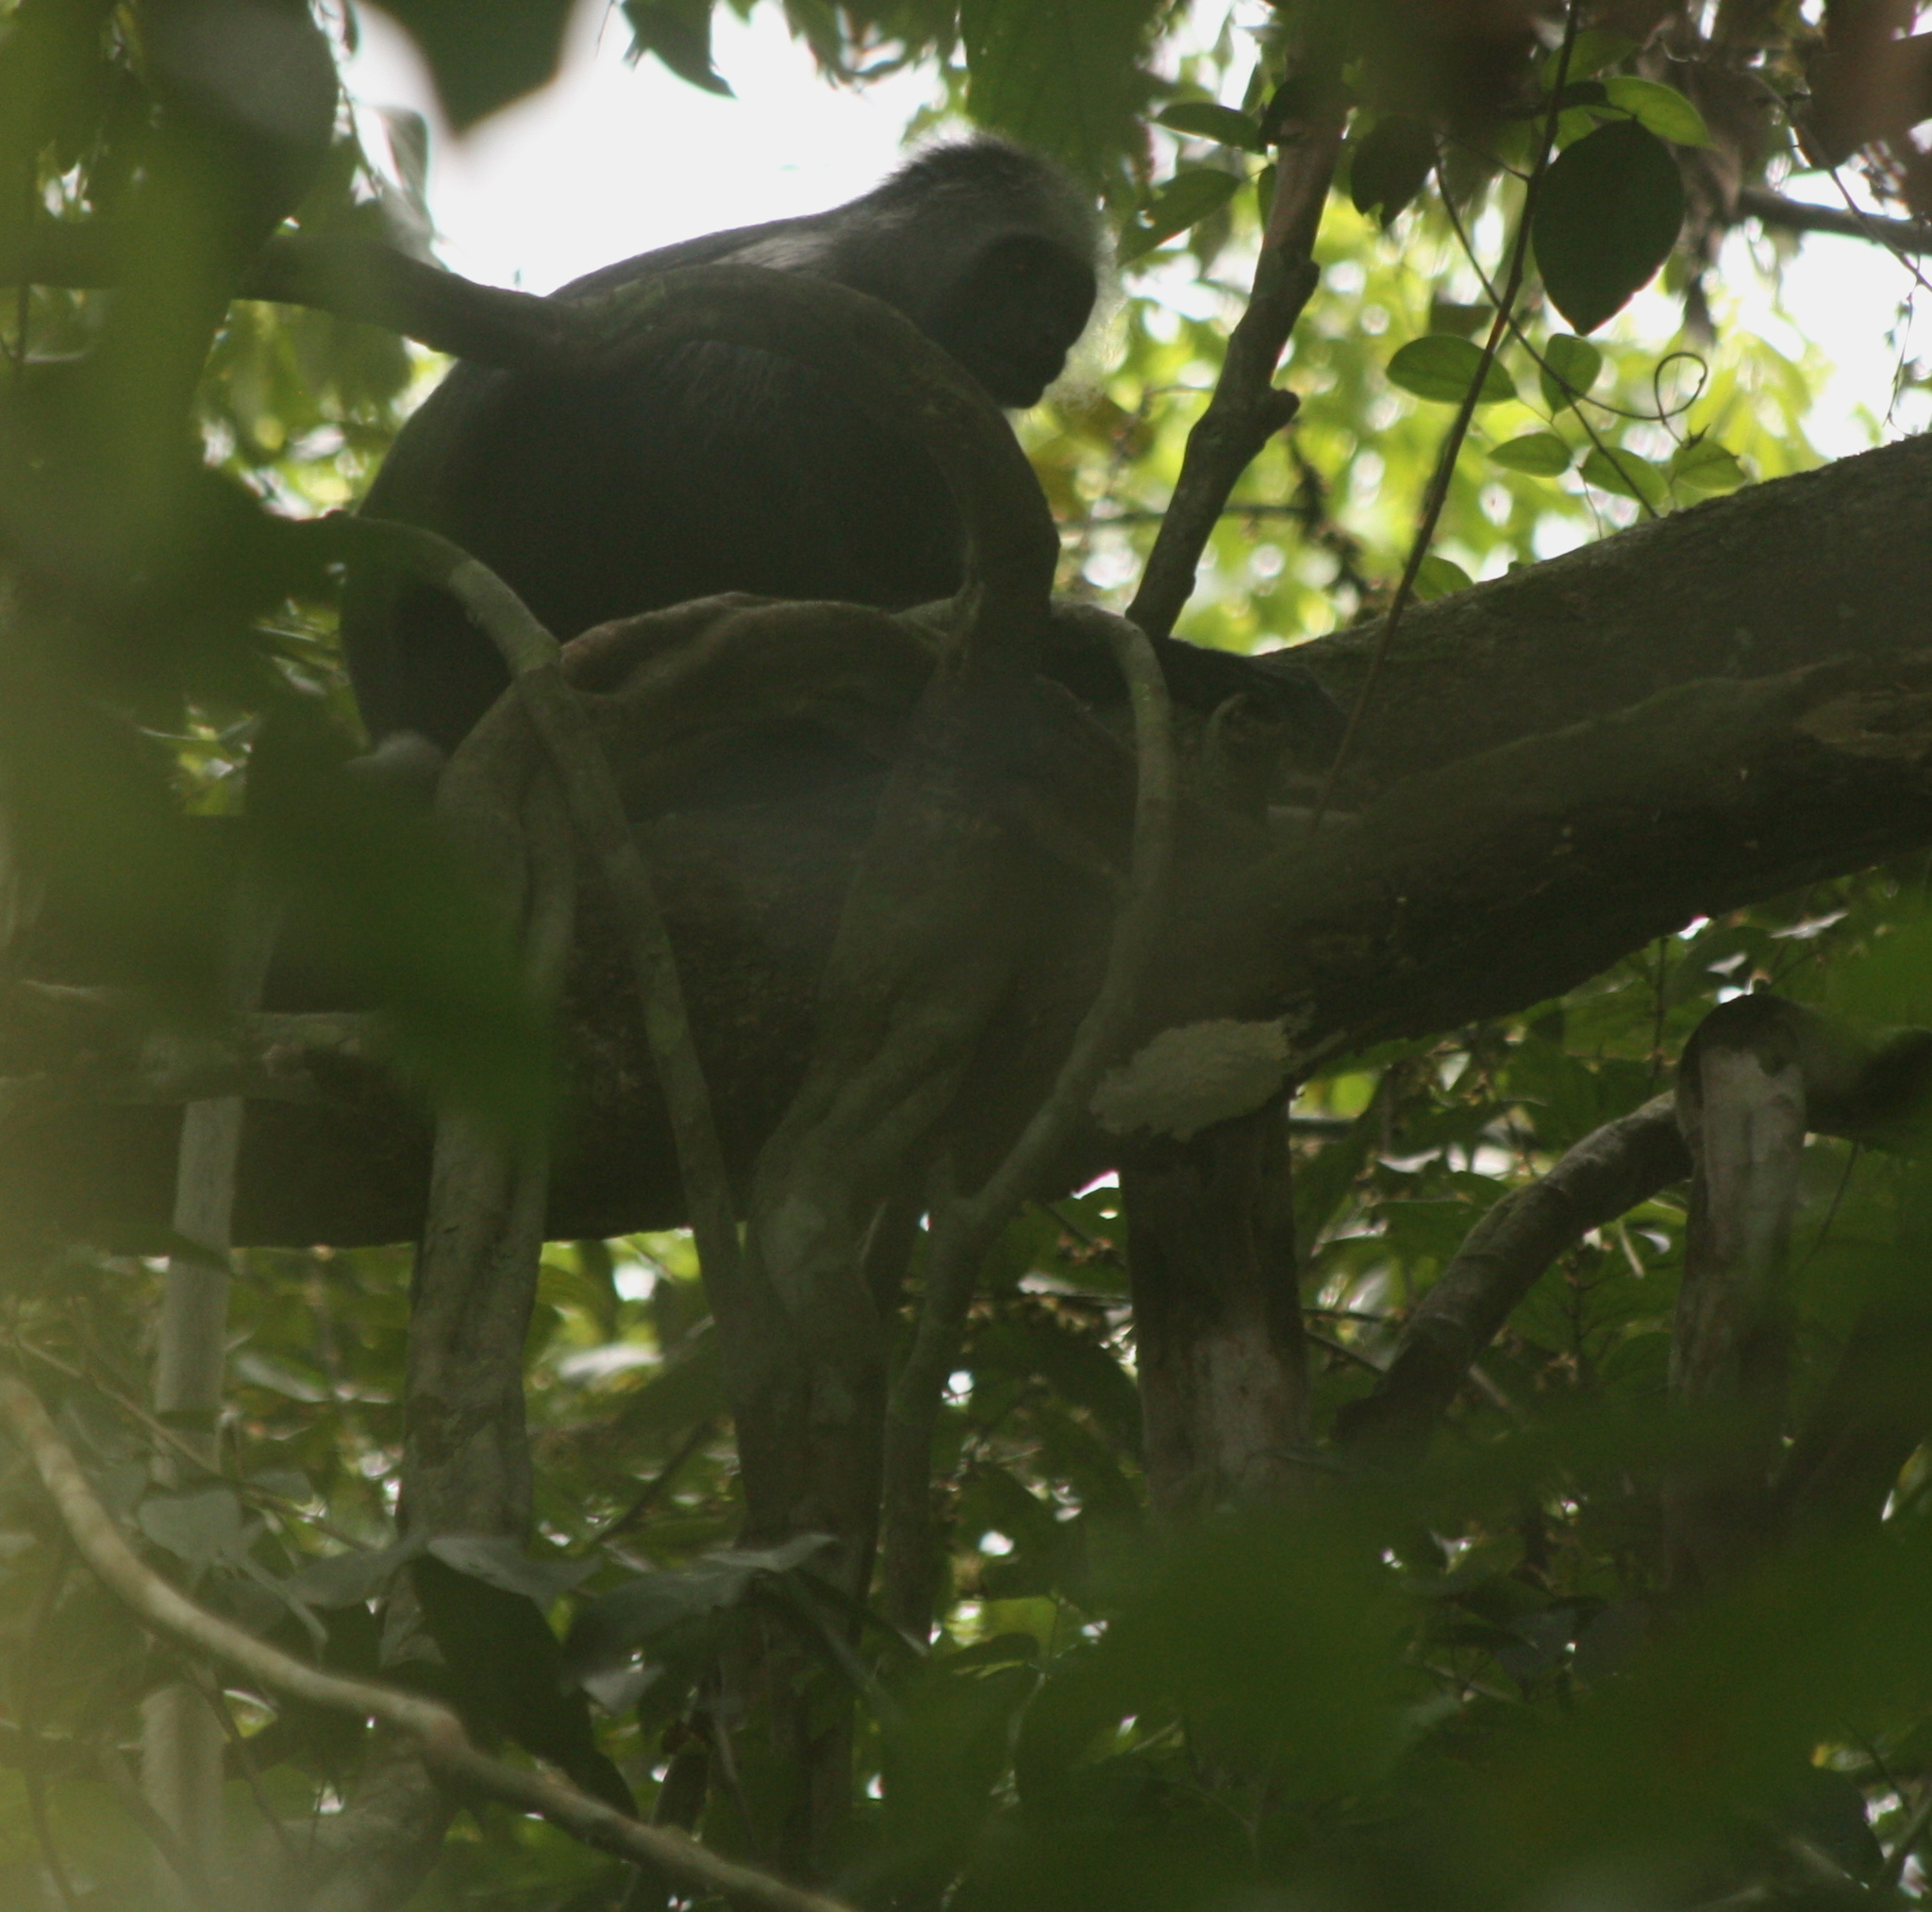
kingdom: Animalia
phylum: Chordata
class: Mammalia
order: Primates
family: Cercopithecidae
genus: Colobus
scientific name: Colobus polykomos
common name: King colobus
